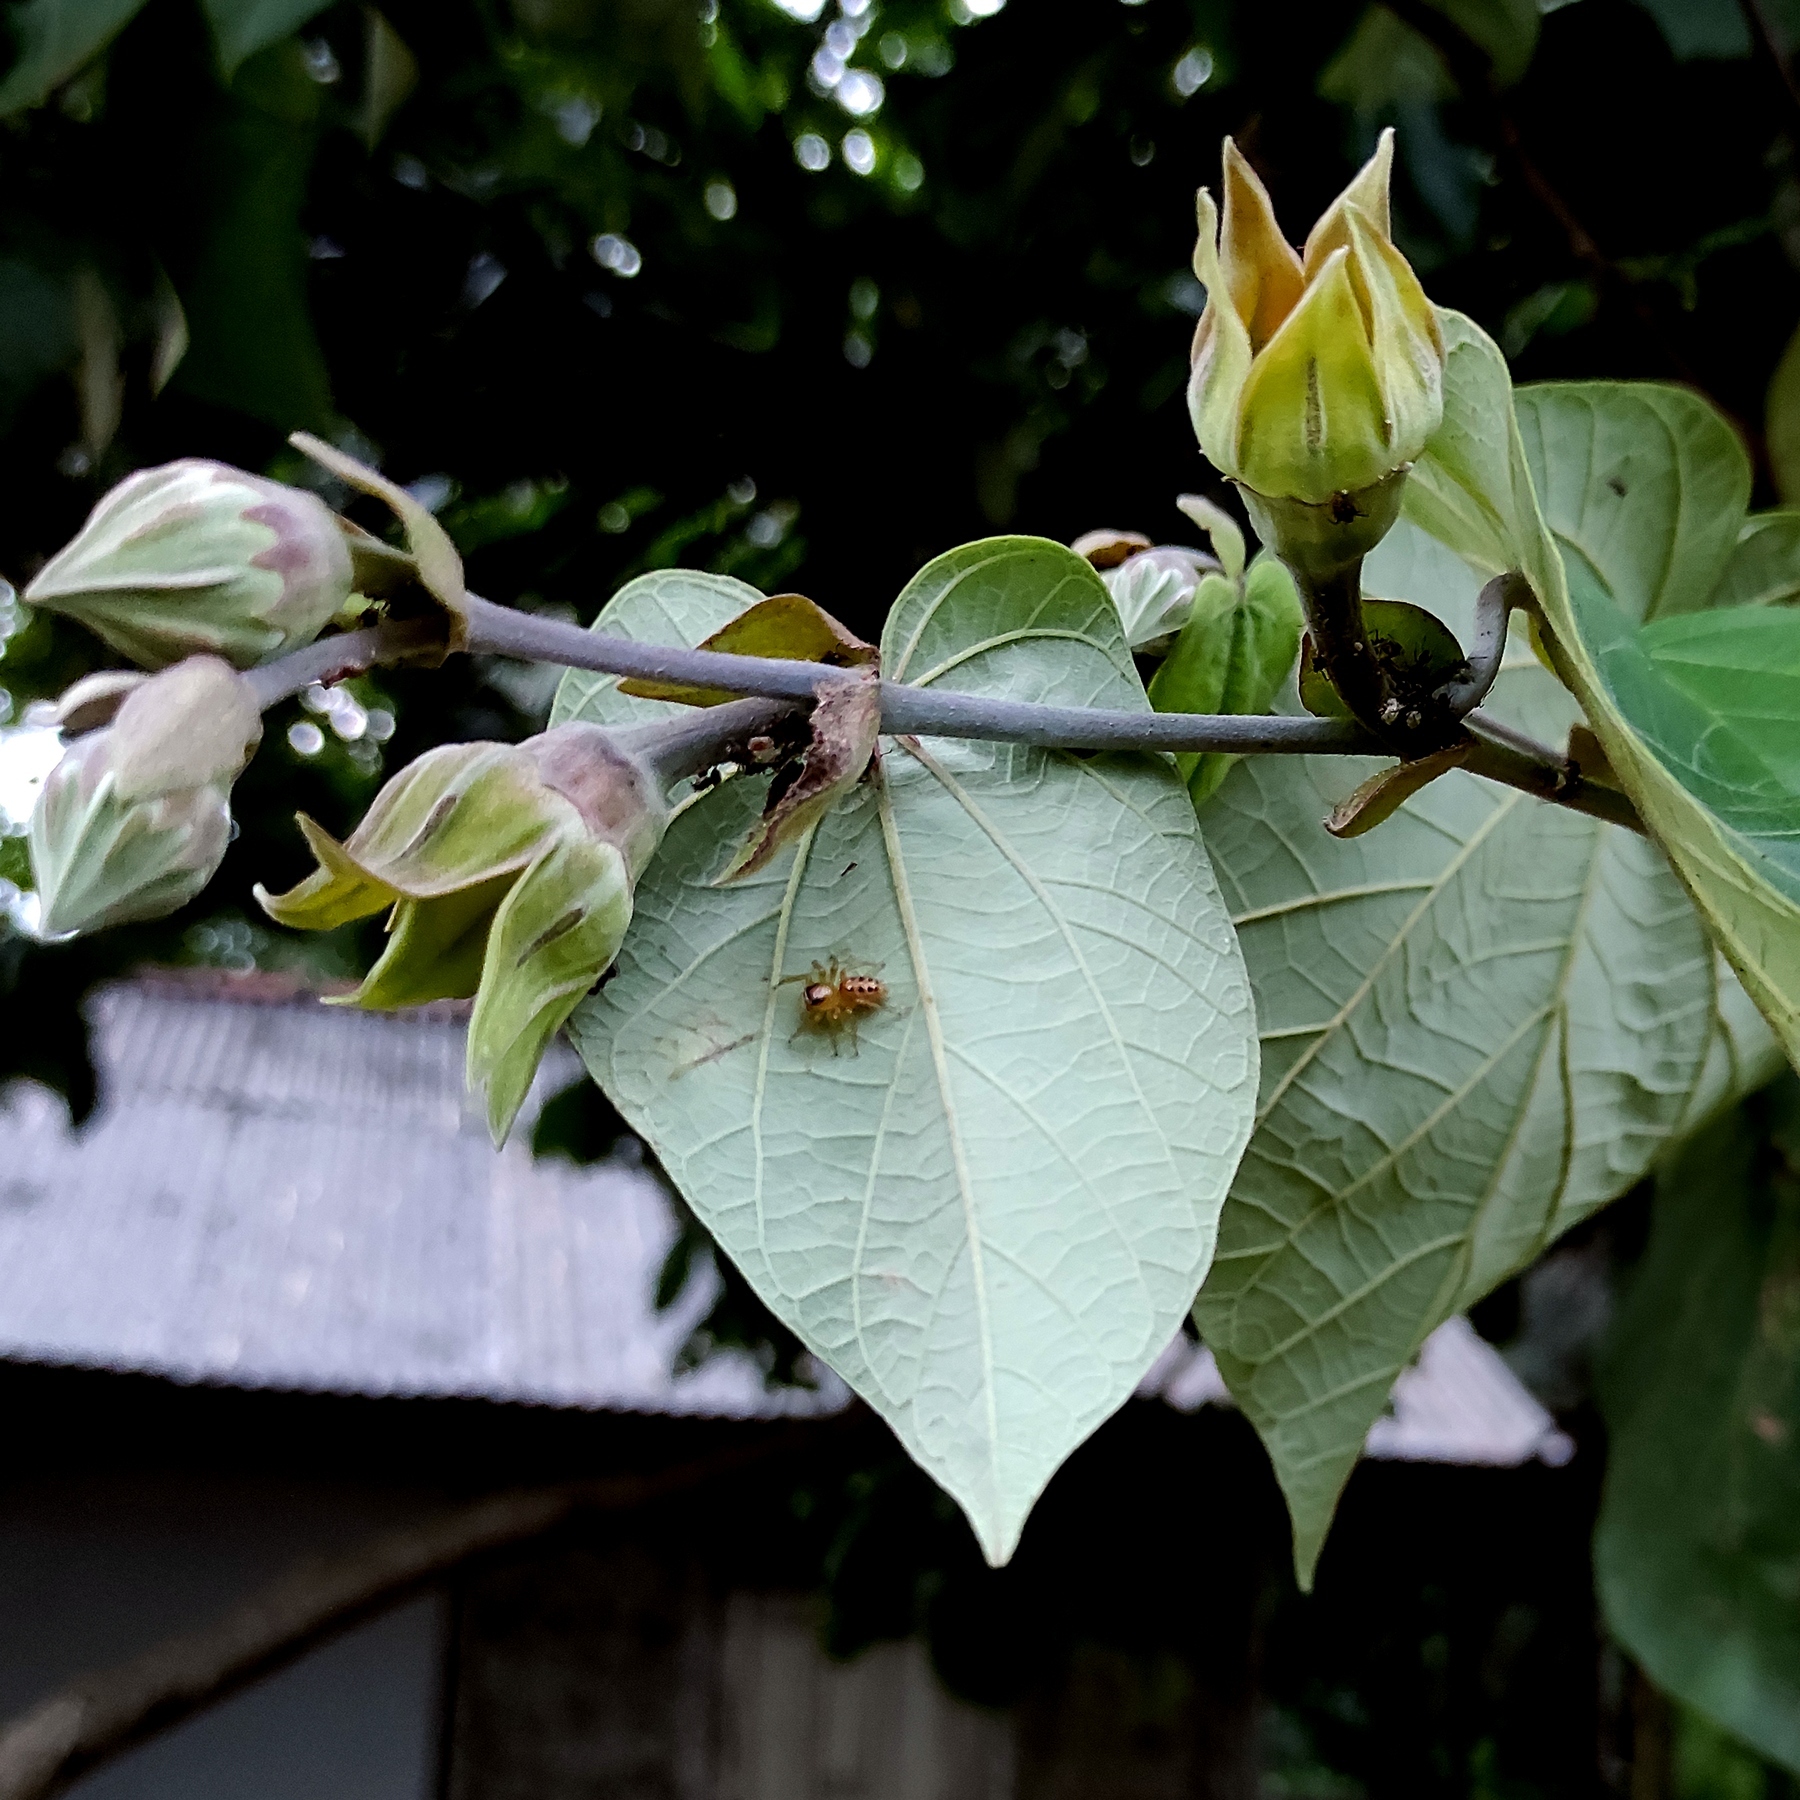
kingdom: Plantae
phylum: Tracheophyta
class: Magnoliopsida
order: Malvales
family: Malvaceae
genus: Talipariti
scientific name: Talipariti tiliaceum
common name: Sea hibiscus
